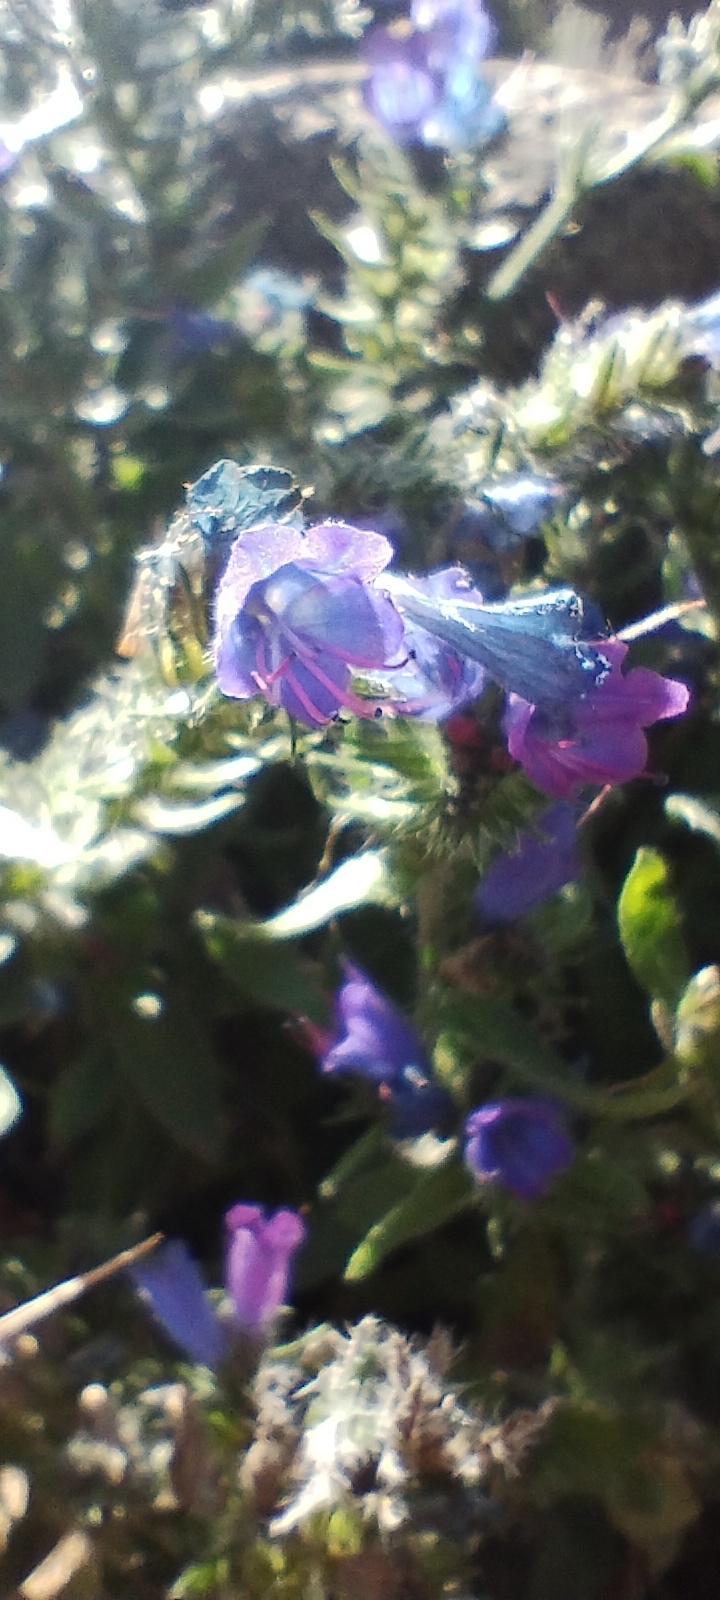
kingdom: Plantae
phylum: Tracheophyta
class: Magnoliopsida
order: Boraginales
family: Boraginaceae
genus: Echium
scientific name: Echium vulgare
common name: Common viper's bugloss
